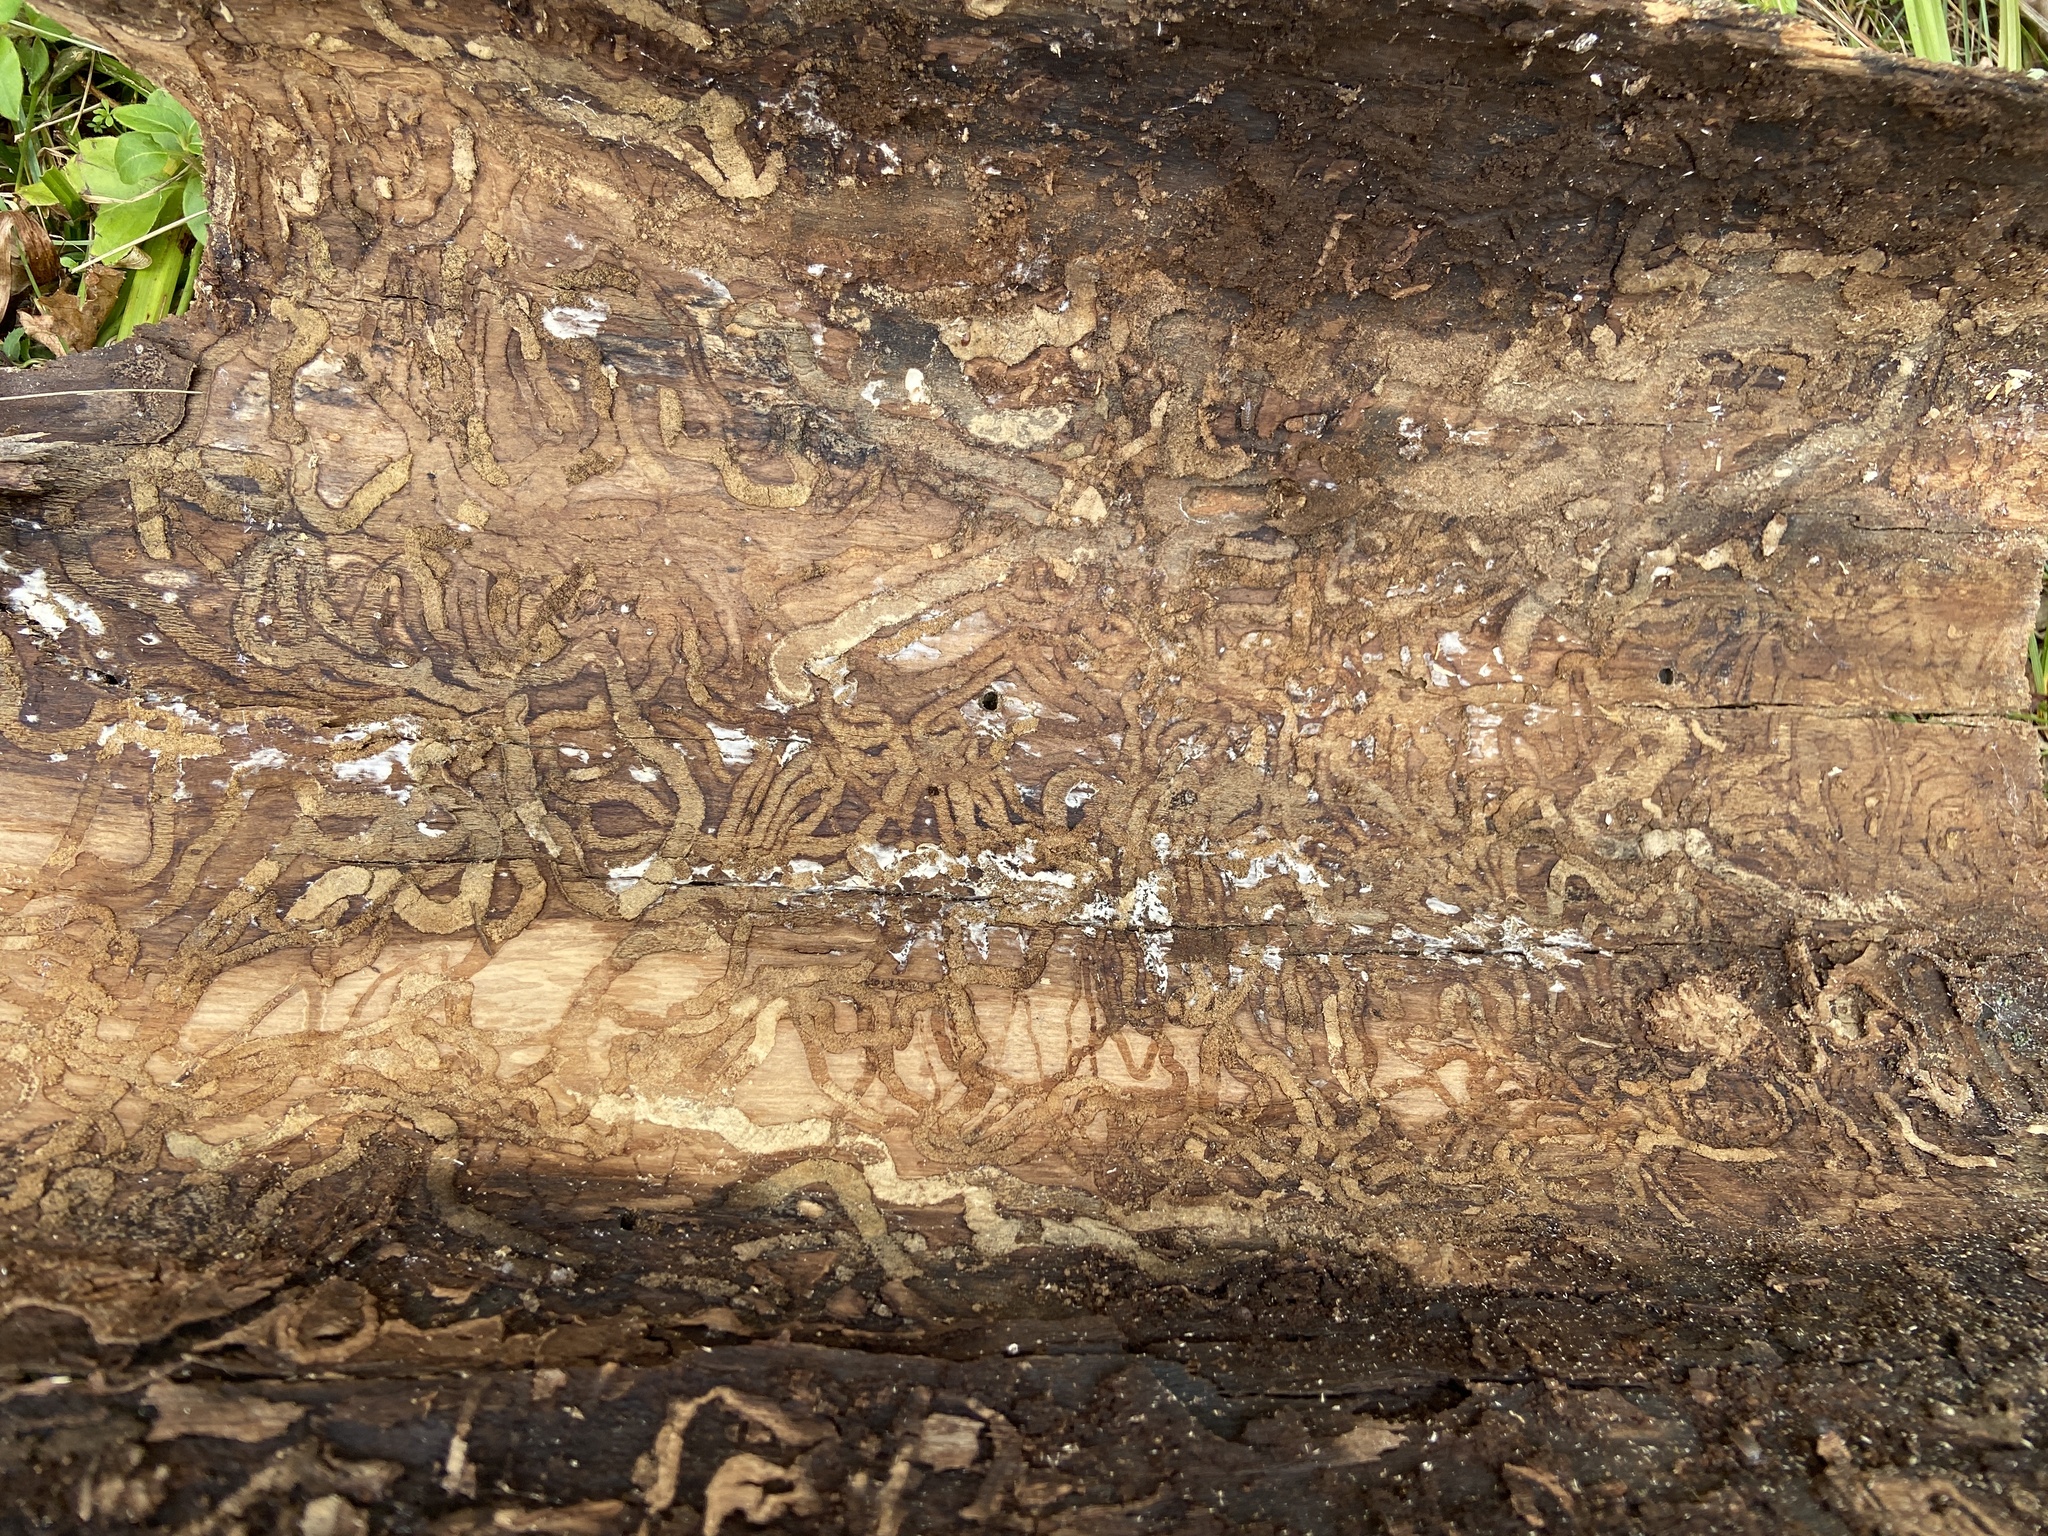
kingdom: Animalia
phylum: Arthropoda
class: Insecta
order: Coleoptera
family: Buprestidae
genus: Agrilus
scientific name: Agrilus planipennis
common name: Emerald ash borer
